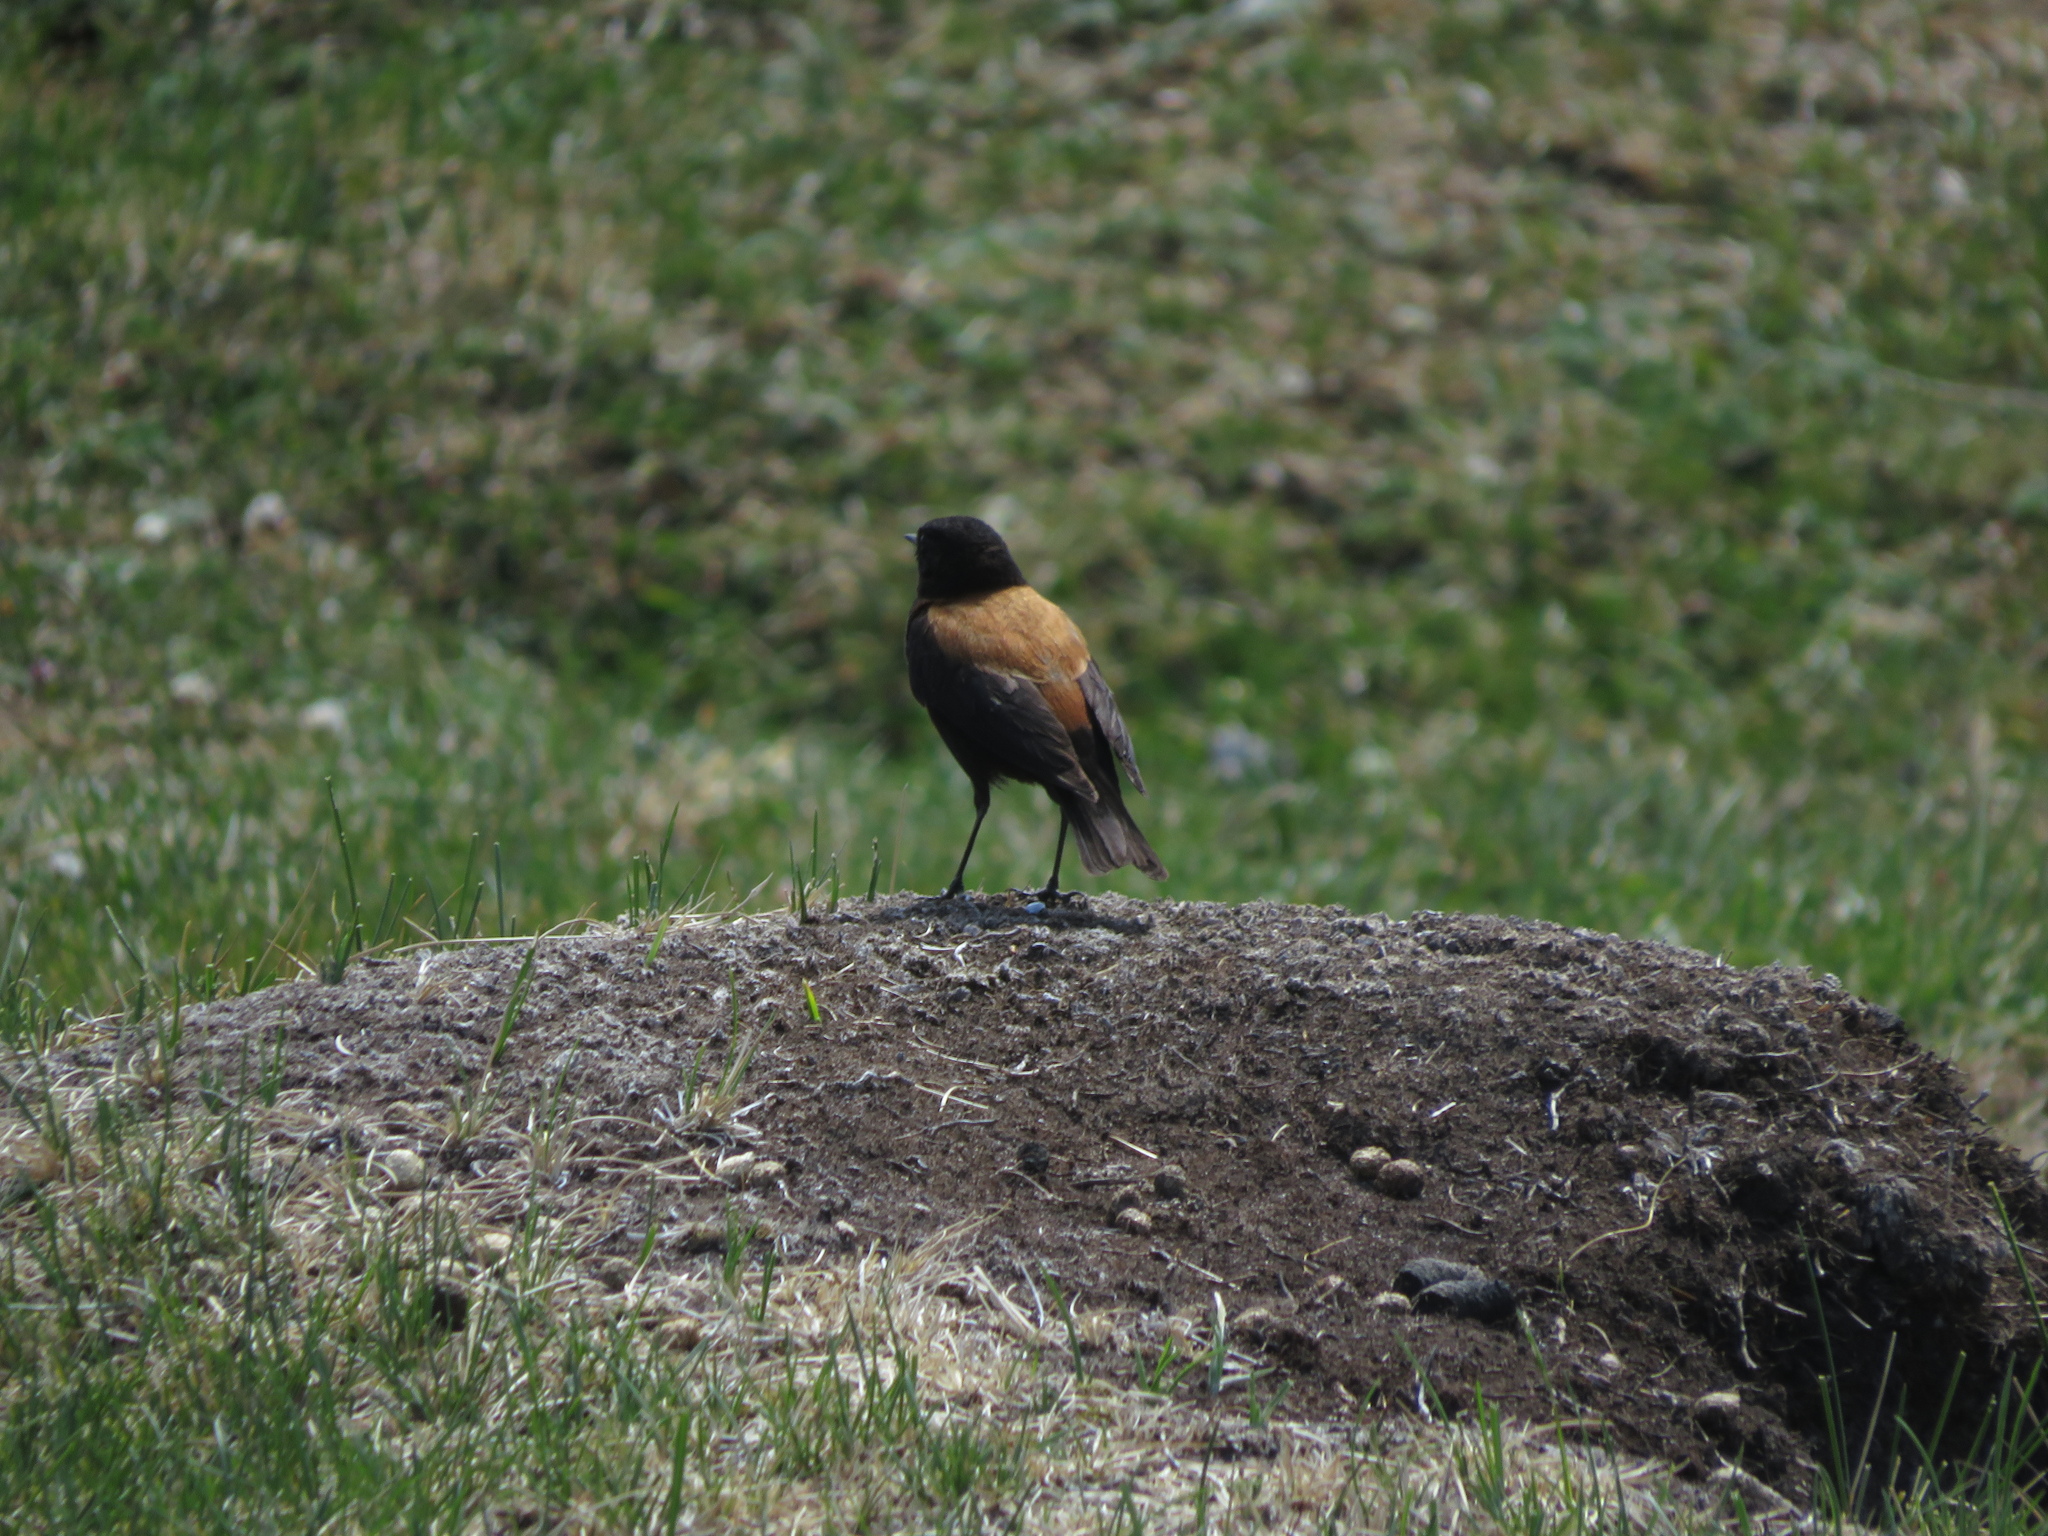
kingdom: Animalia
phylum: Chordata
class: Aves
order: Passeriformes
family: Tyrannidae
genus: Lessonia
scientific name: Lessonia rufa
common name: Austral negrito
